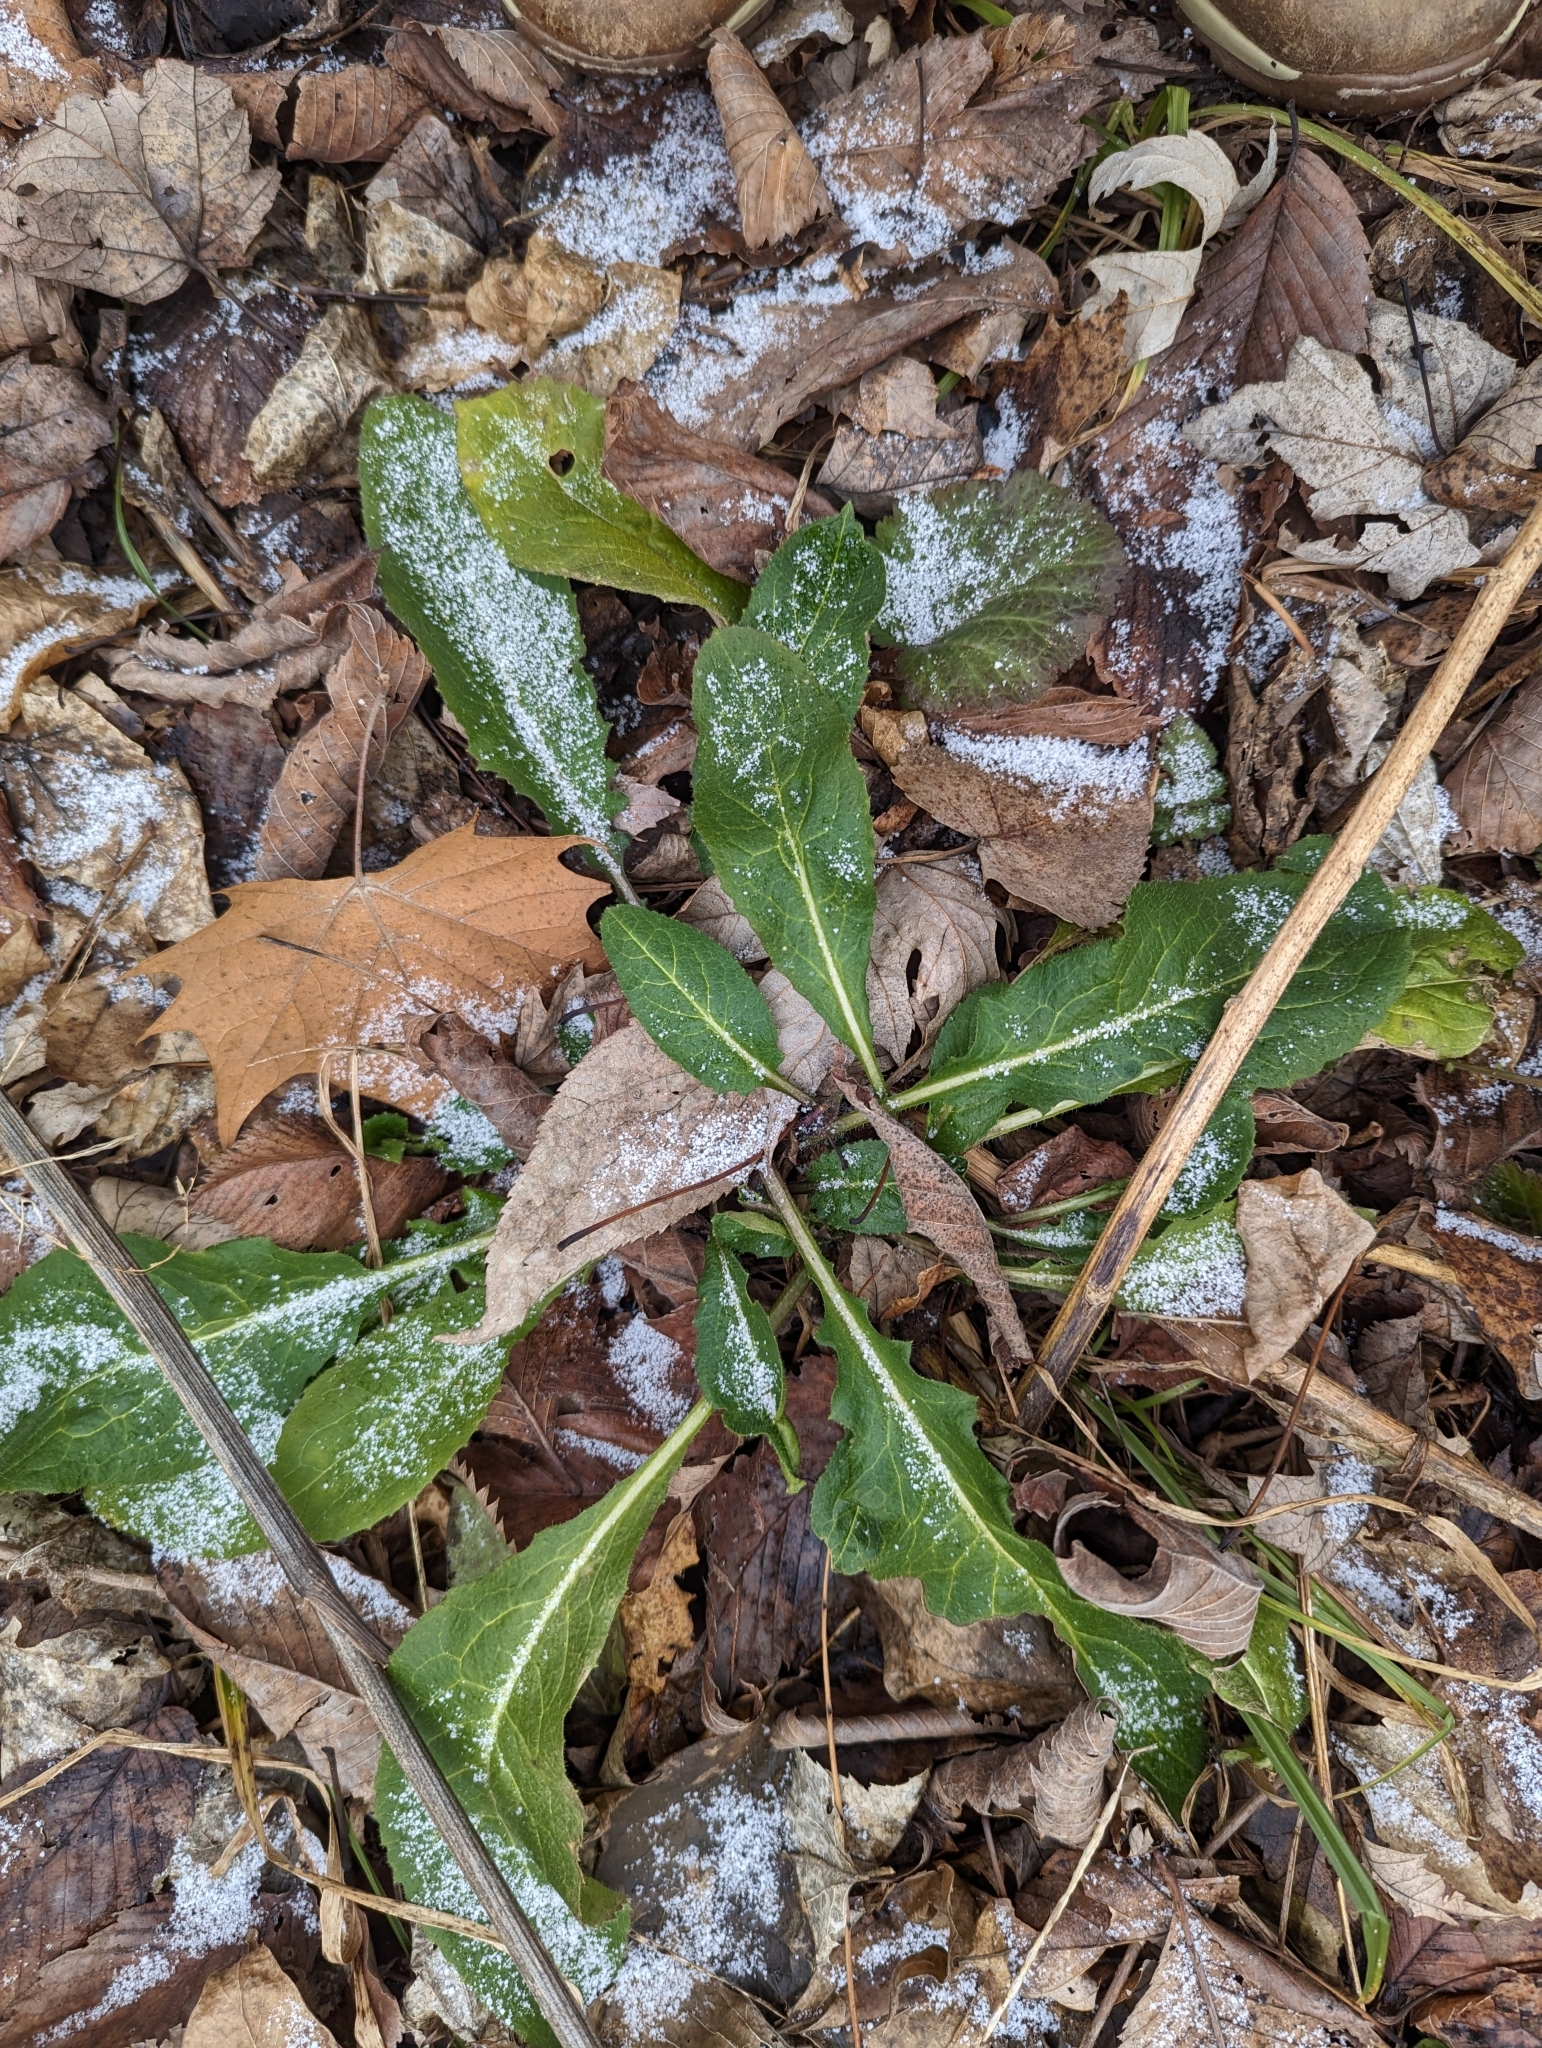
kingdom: Plantae
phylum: Tracheophyta
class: Magnoliopsida
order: Brassicales
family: Brassicaceae
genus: Hesperis
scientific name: Hesperis matronalis
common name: Dame's-violet
